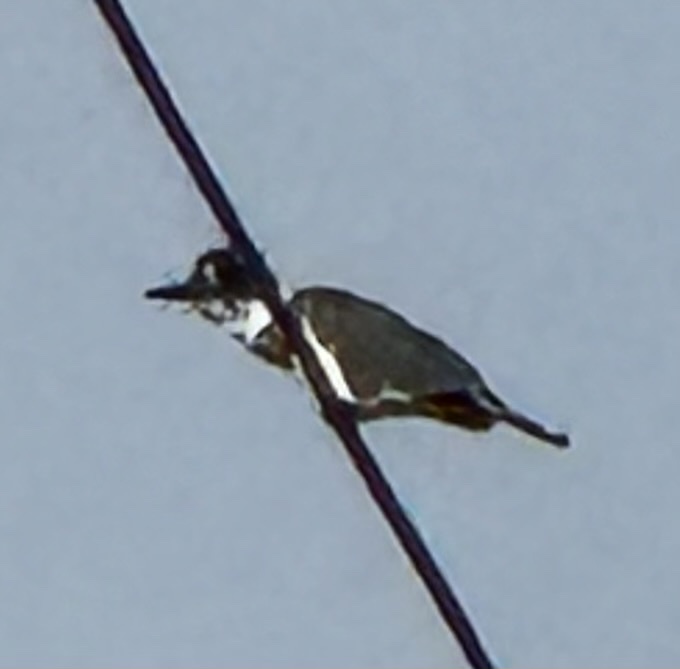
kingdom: Animalia
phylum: Chordata
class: Aves
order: Coraciiformes
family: Alcedinidae
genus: Megaceryle
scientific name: Megaceryle alcyon
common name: Belted kingfisher
